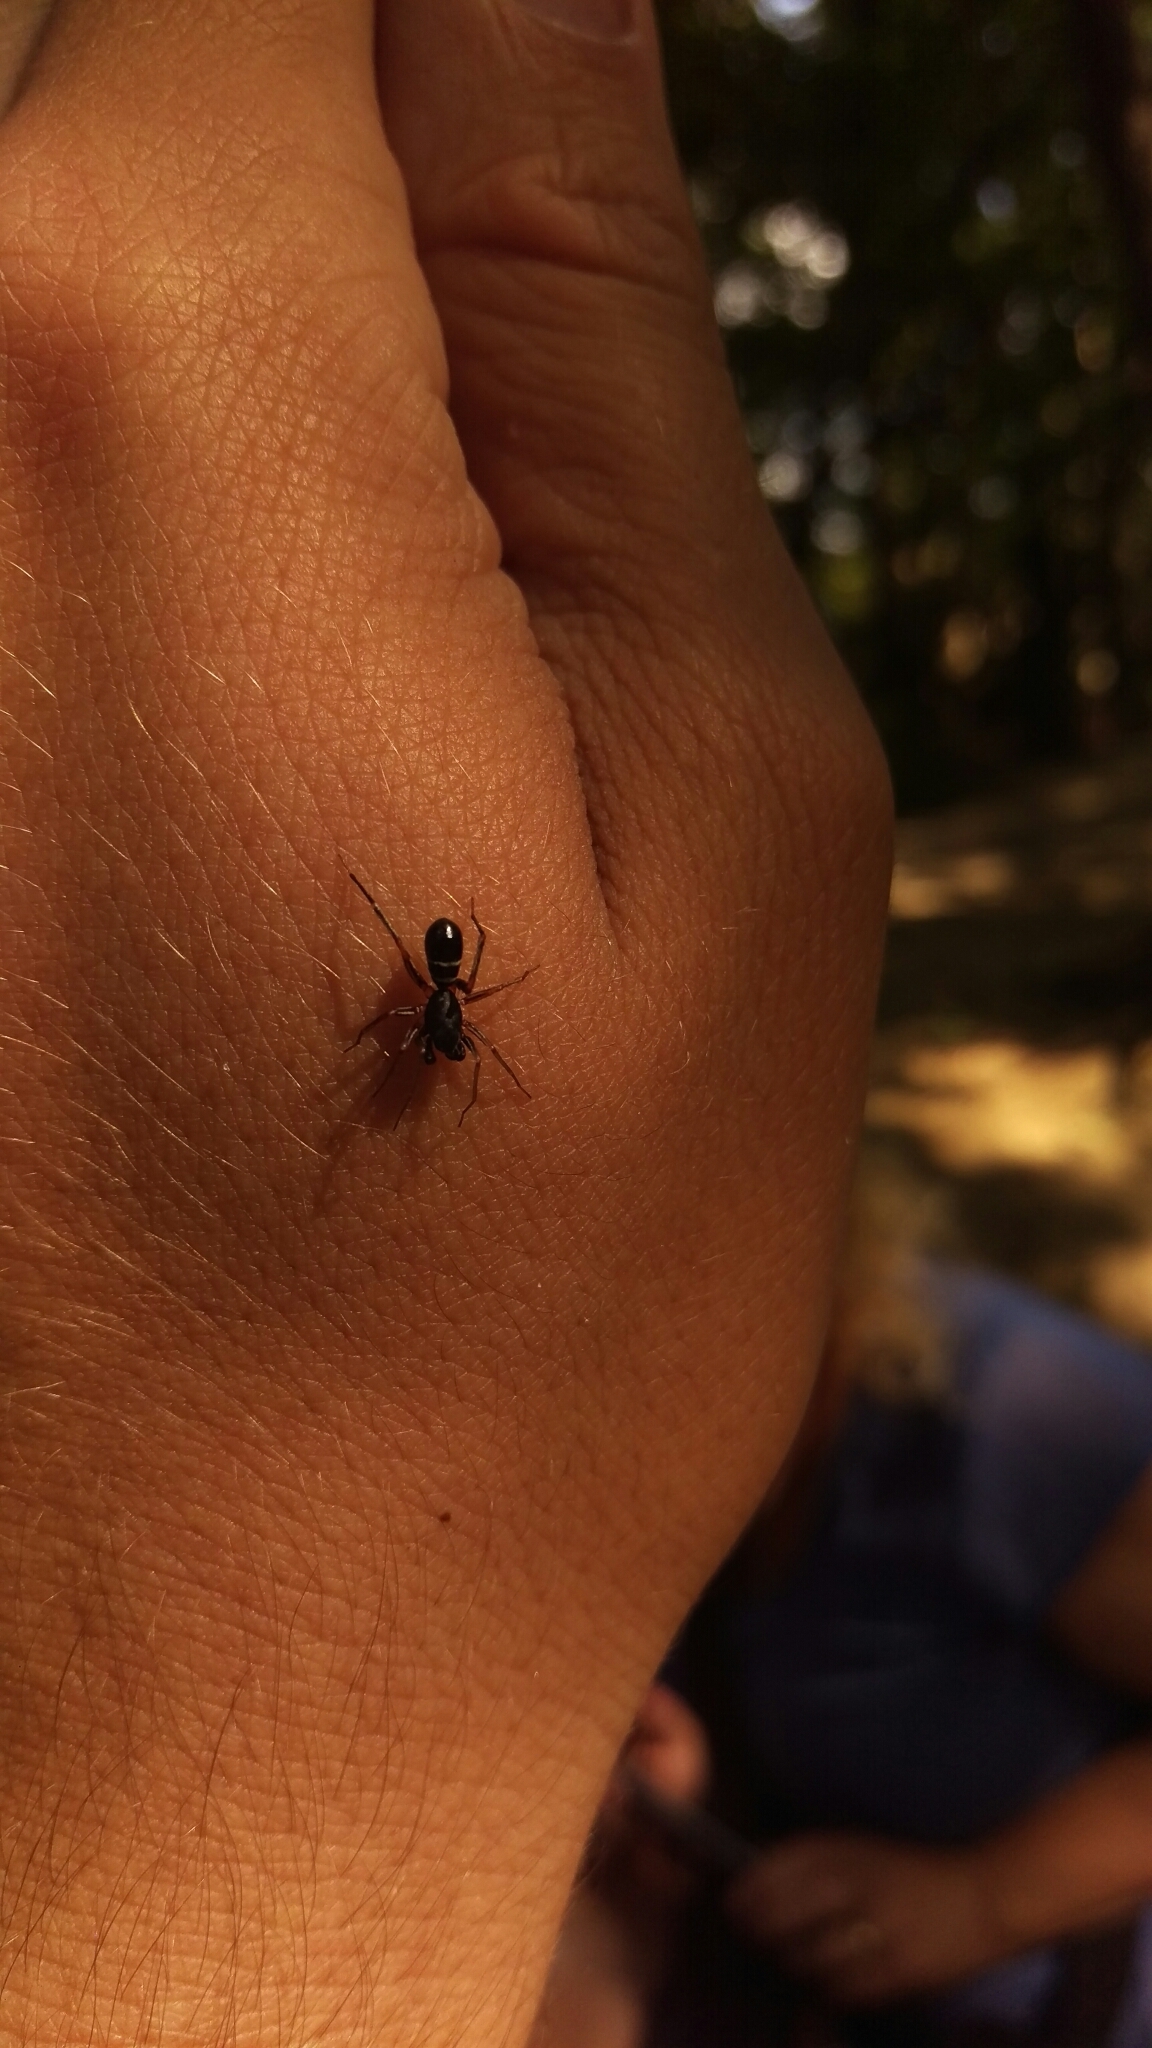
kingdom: Animalia
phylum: Arthropoda
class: Arachnida
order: Araneae
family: Corinnidae
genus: Castianeira
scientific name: Castianeira cingulata
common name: Two-banded ant-mimic sac spider
